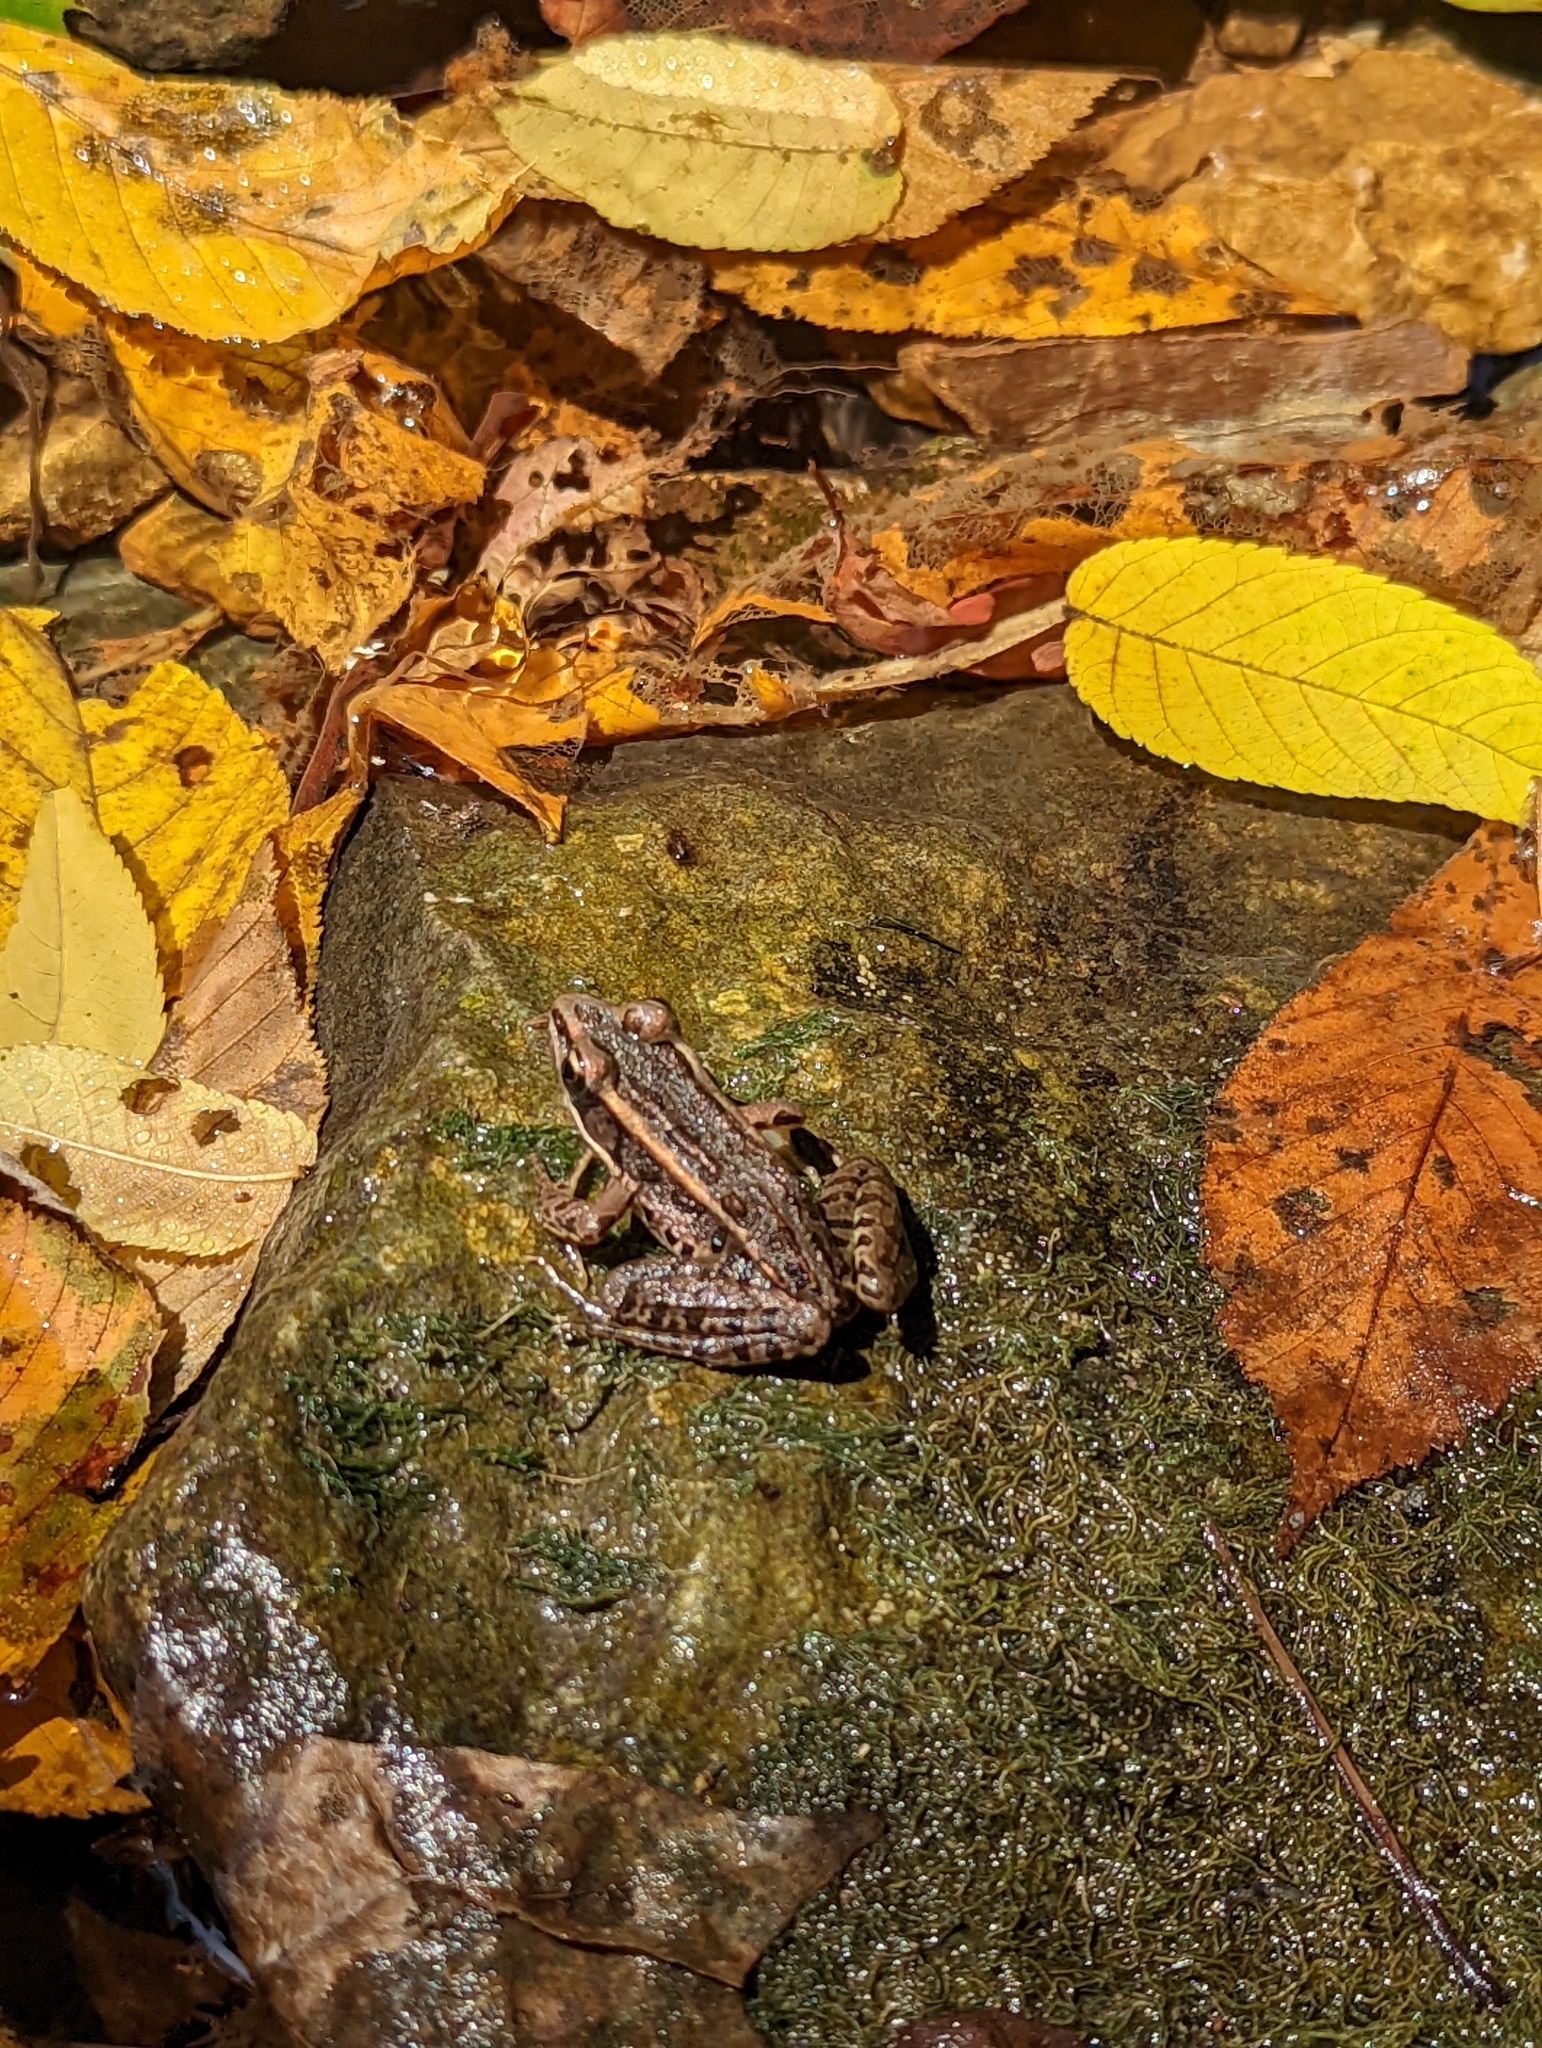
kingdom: Animalia
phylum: Chordata
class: Amphibia
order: Anura
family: Ranidae
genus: Lithobates
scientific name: Lithobates palustris
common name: Pickerel frog
